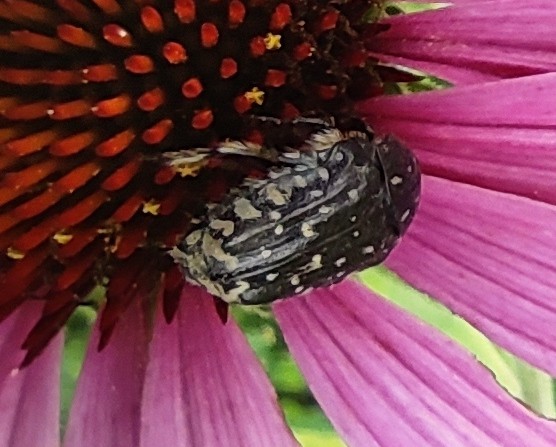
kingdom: Animalia
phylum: Arthropoda
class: Insecta
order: Coleoptera
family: Scarabaeidae
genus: Oxythyrea
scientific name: Oxythyrea funesta
